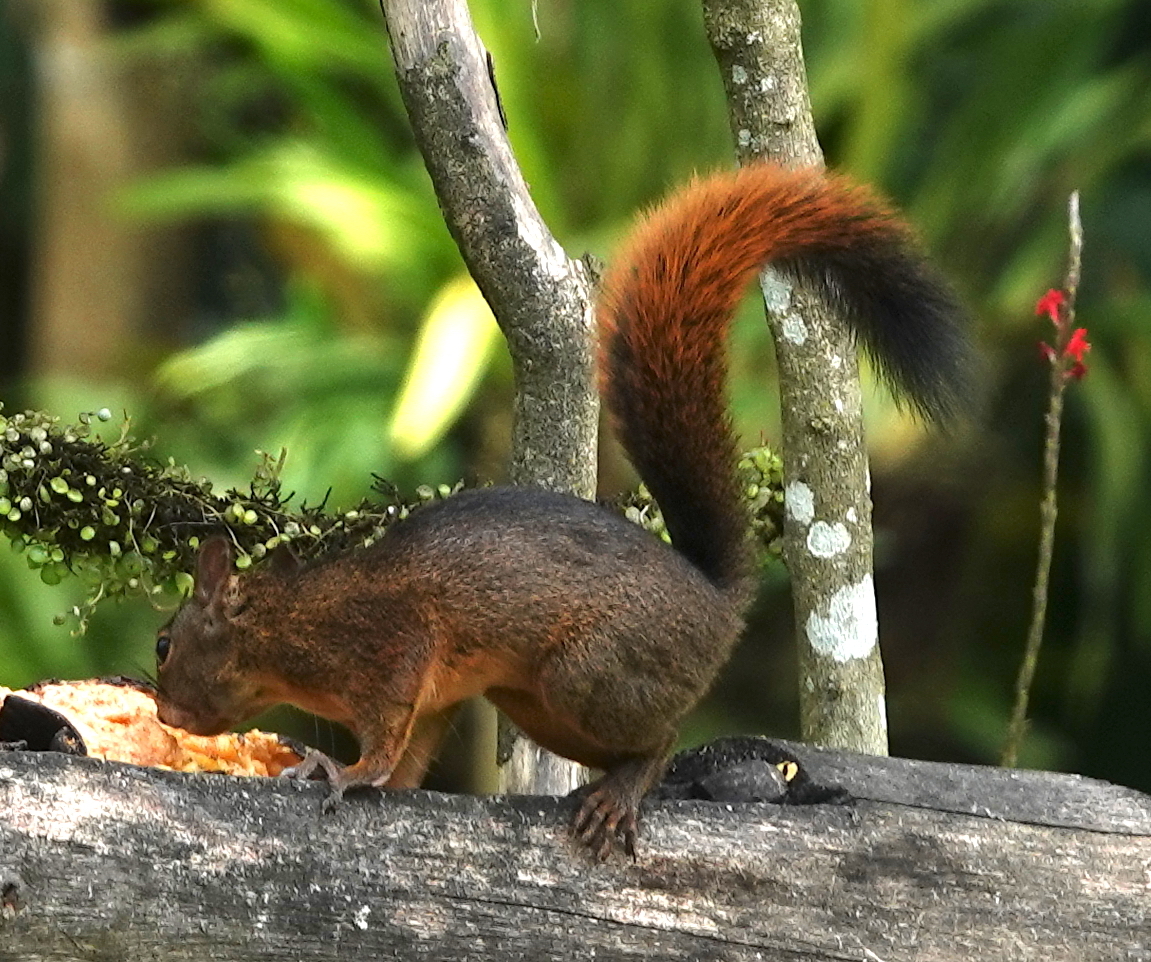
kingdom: Animalia
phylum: Chordata
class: Mammalia
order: Rodentia
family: Sciuridae
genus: Sciurus
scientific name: Sciurus granatensis
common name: Red-tailed squirrel
